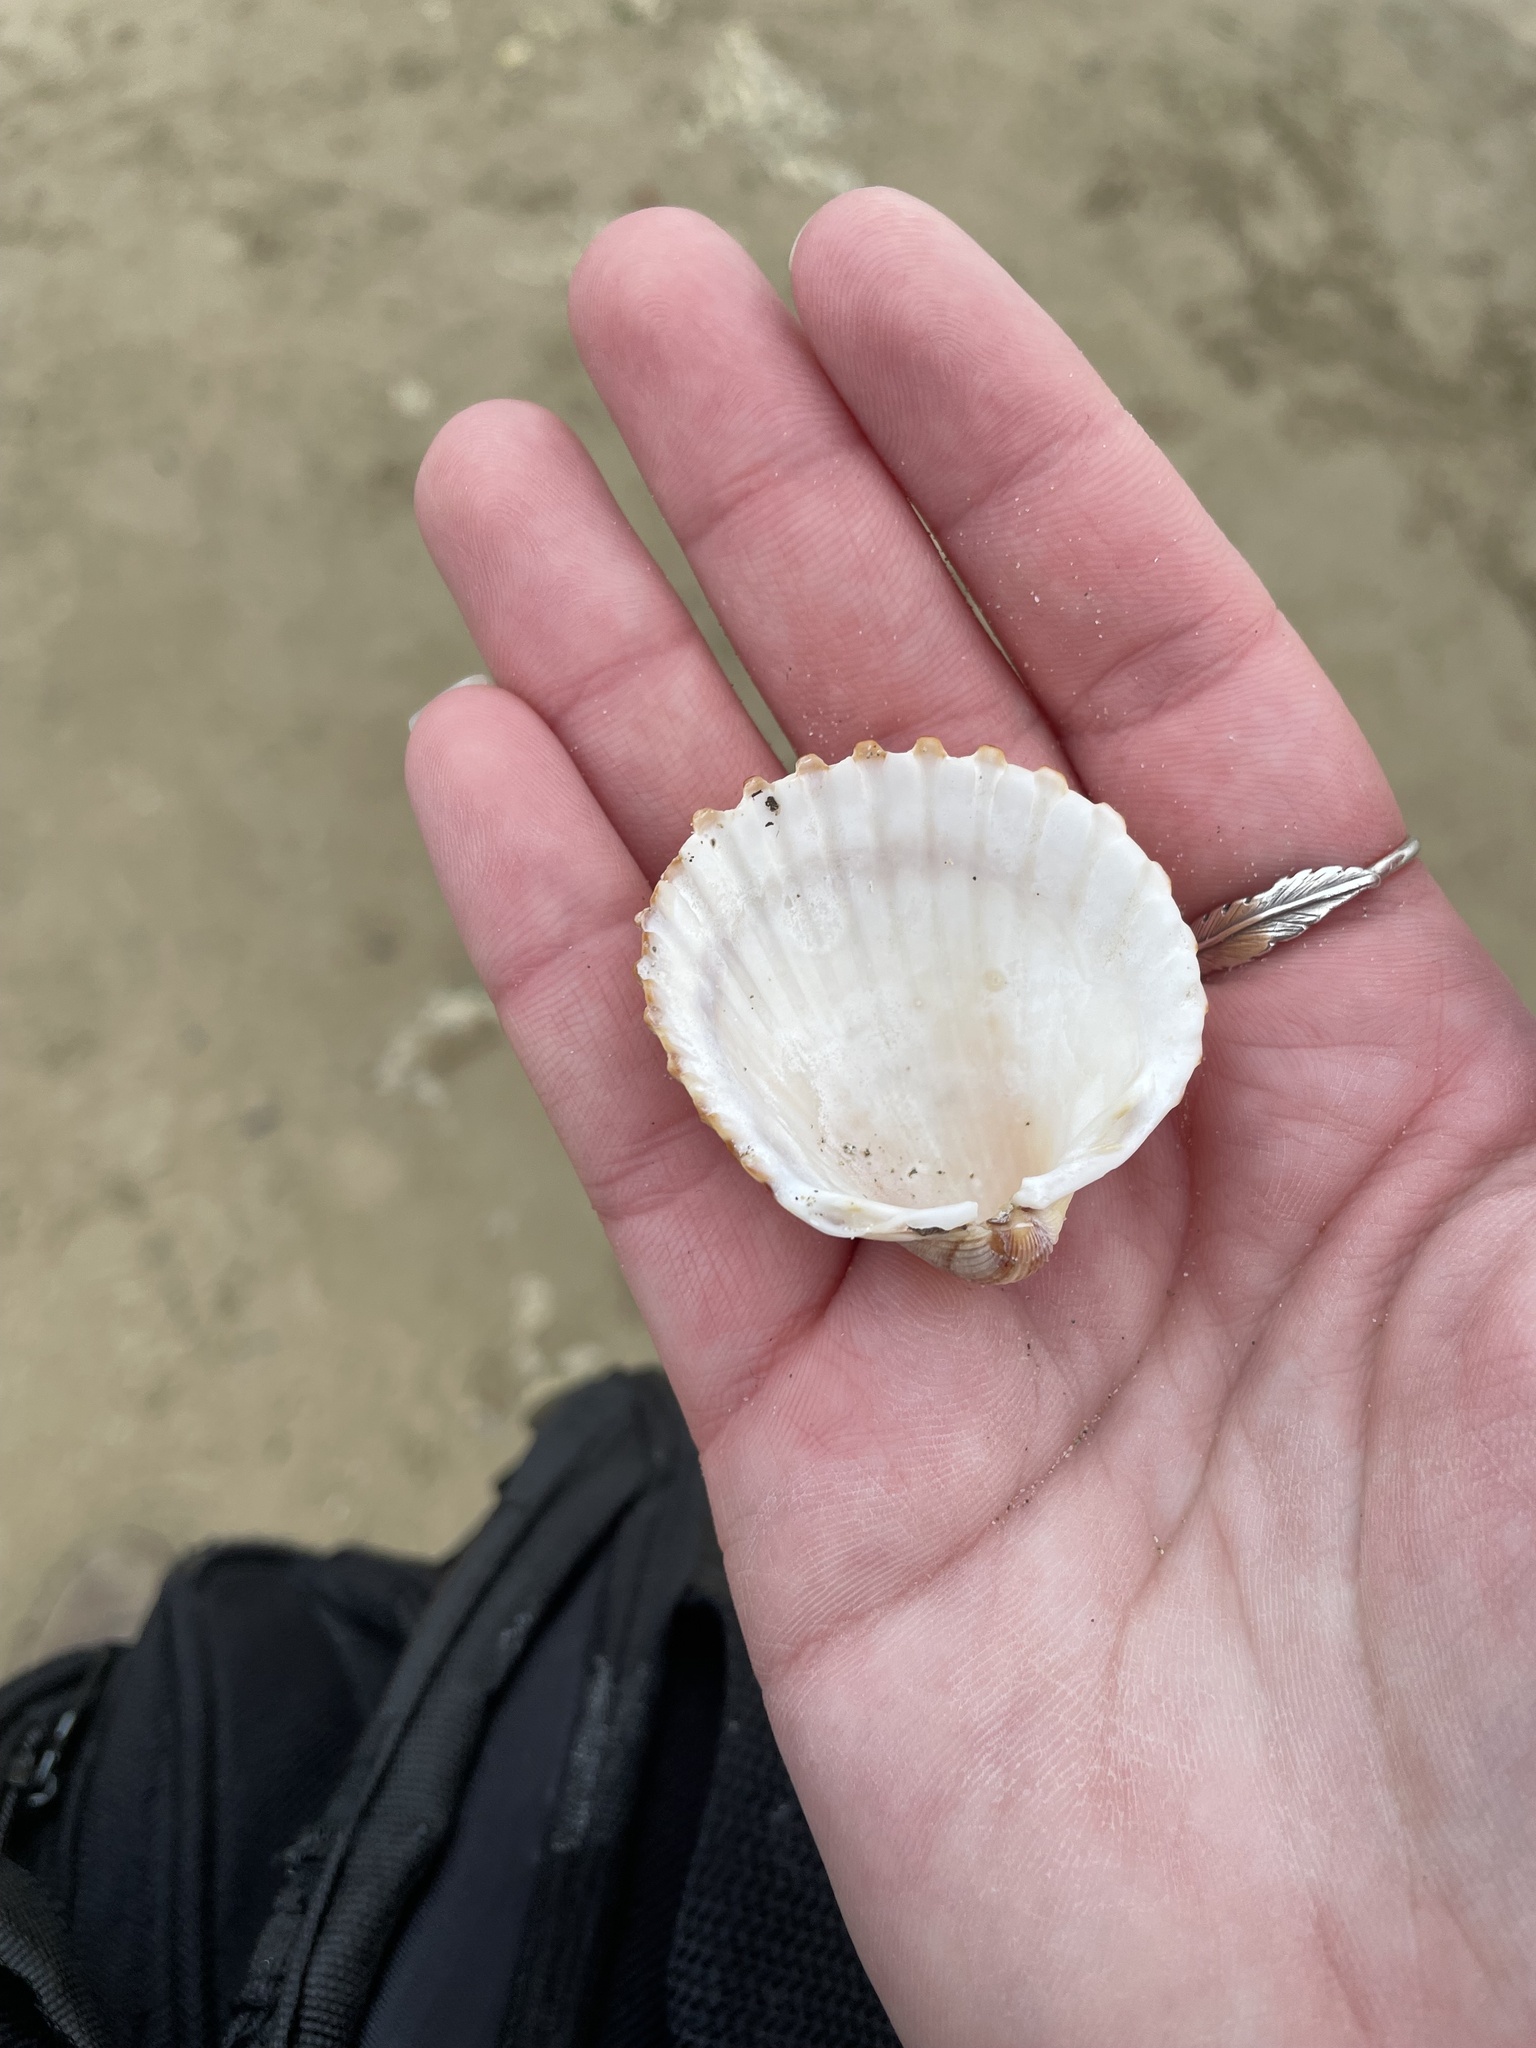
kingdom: Animalia
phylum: Mollusca
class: Bivalvia
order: Cardiida
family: Cardiidae
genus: Acanthocardia
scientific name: Acanthocardia tuberculata
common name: Rough cockle
